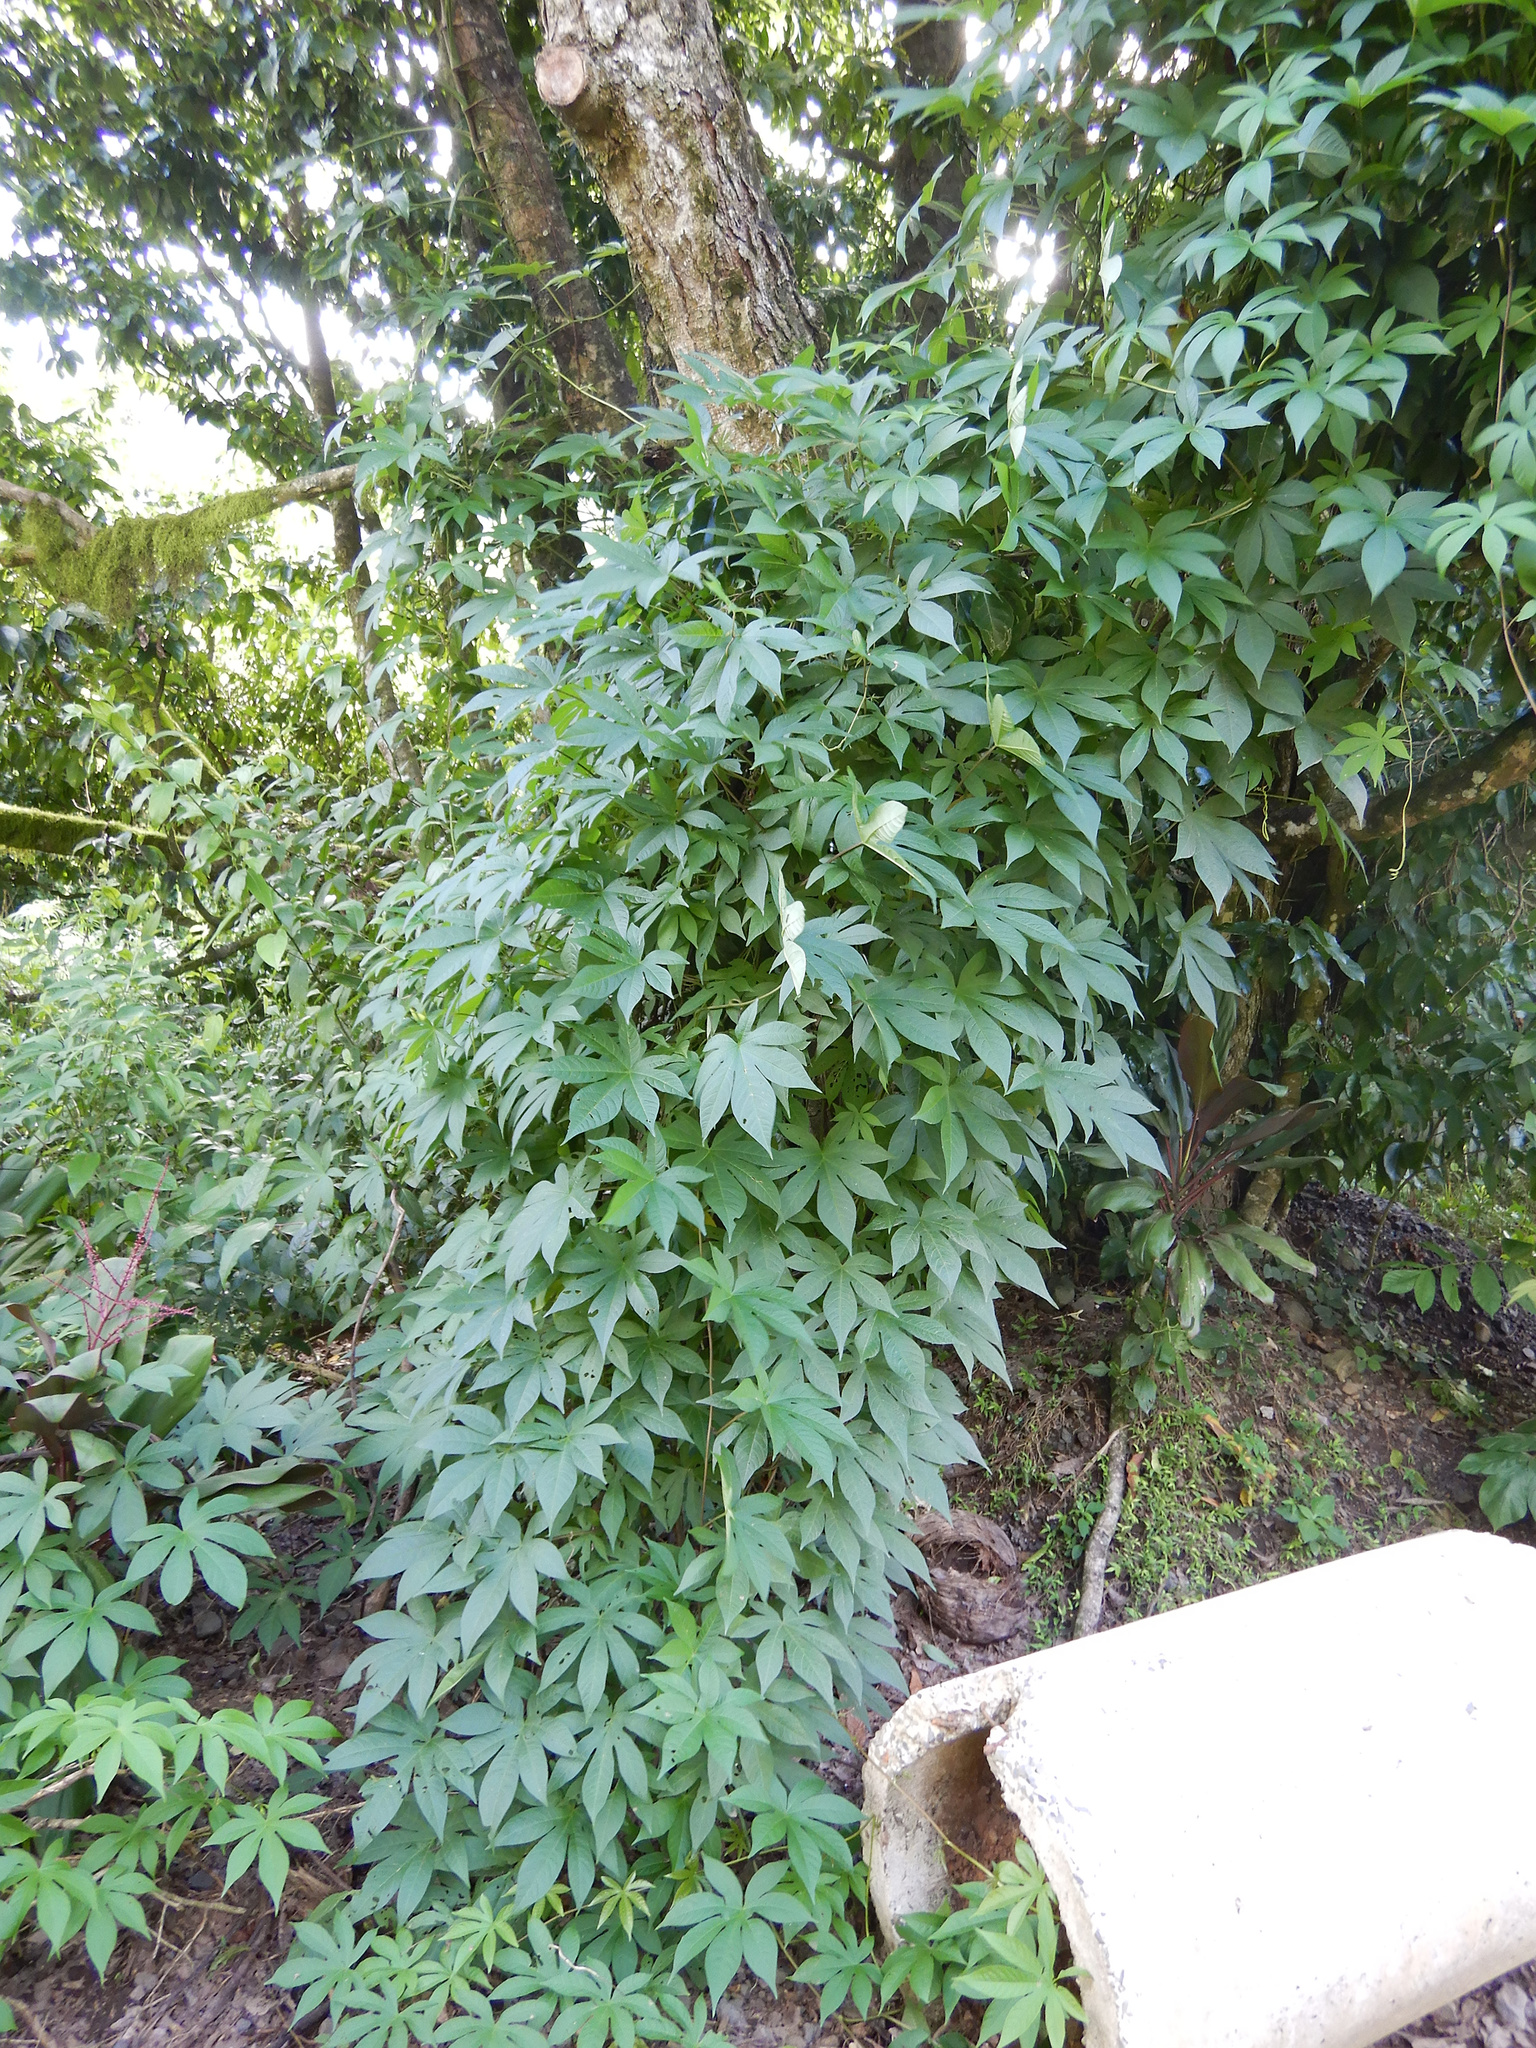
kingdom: Plantae
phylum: Tracheophyta
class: Magnoliopsida
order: Solanales
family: Convolvulaceae
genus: Distimake
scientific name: Distimake tuberosus
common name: Spanish arborvine
